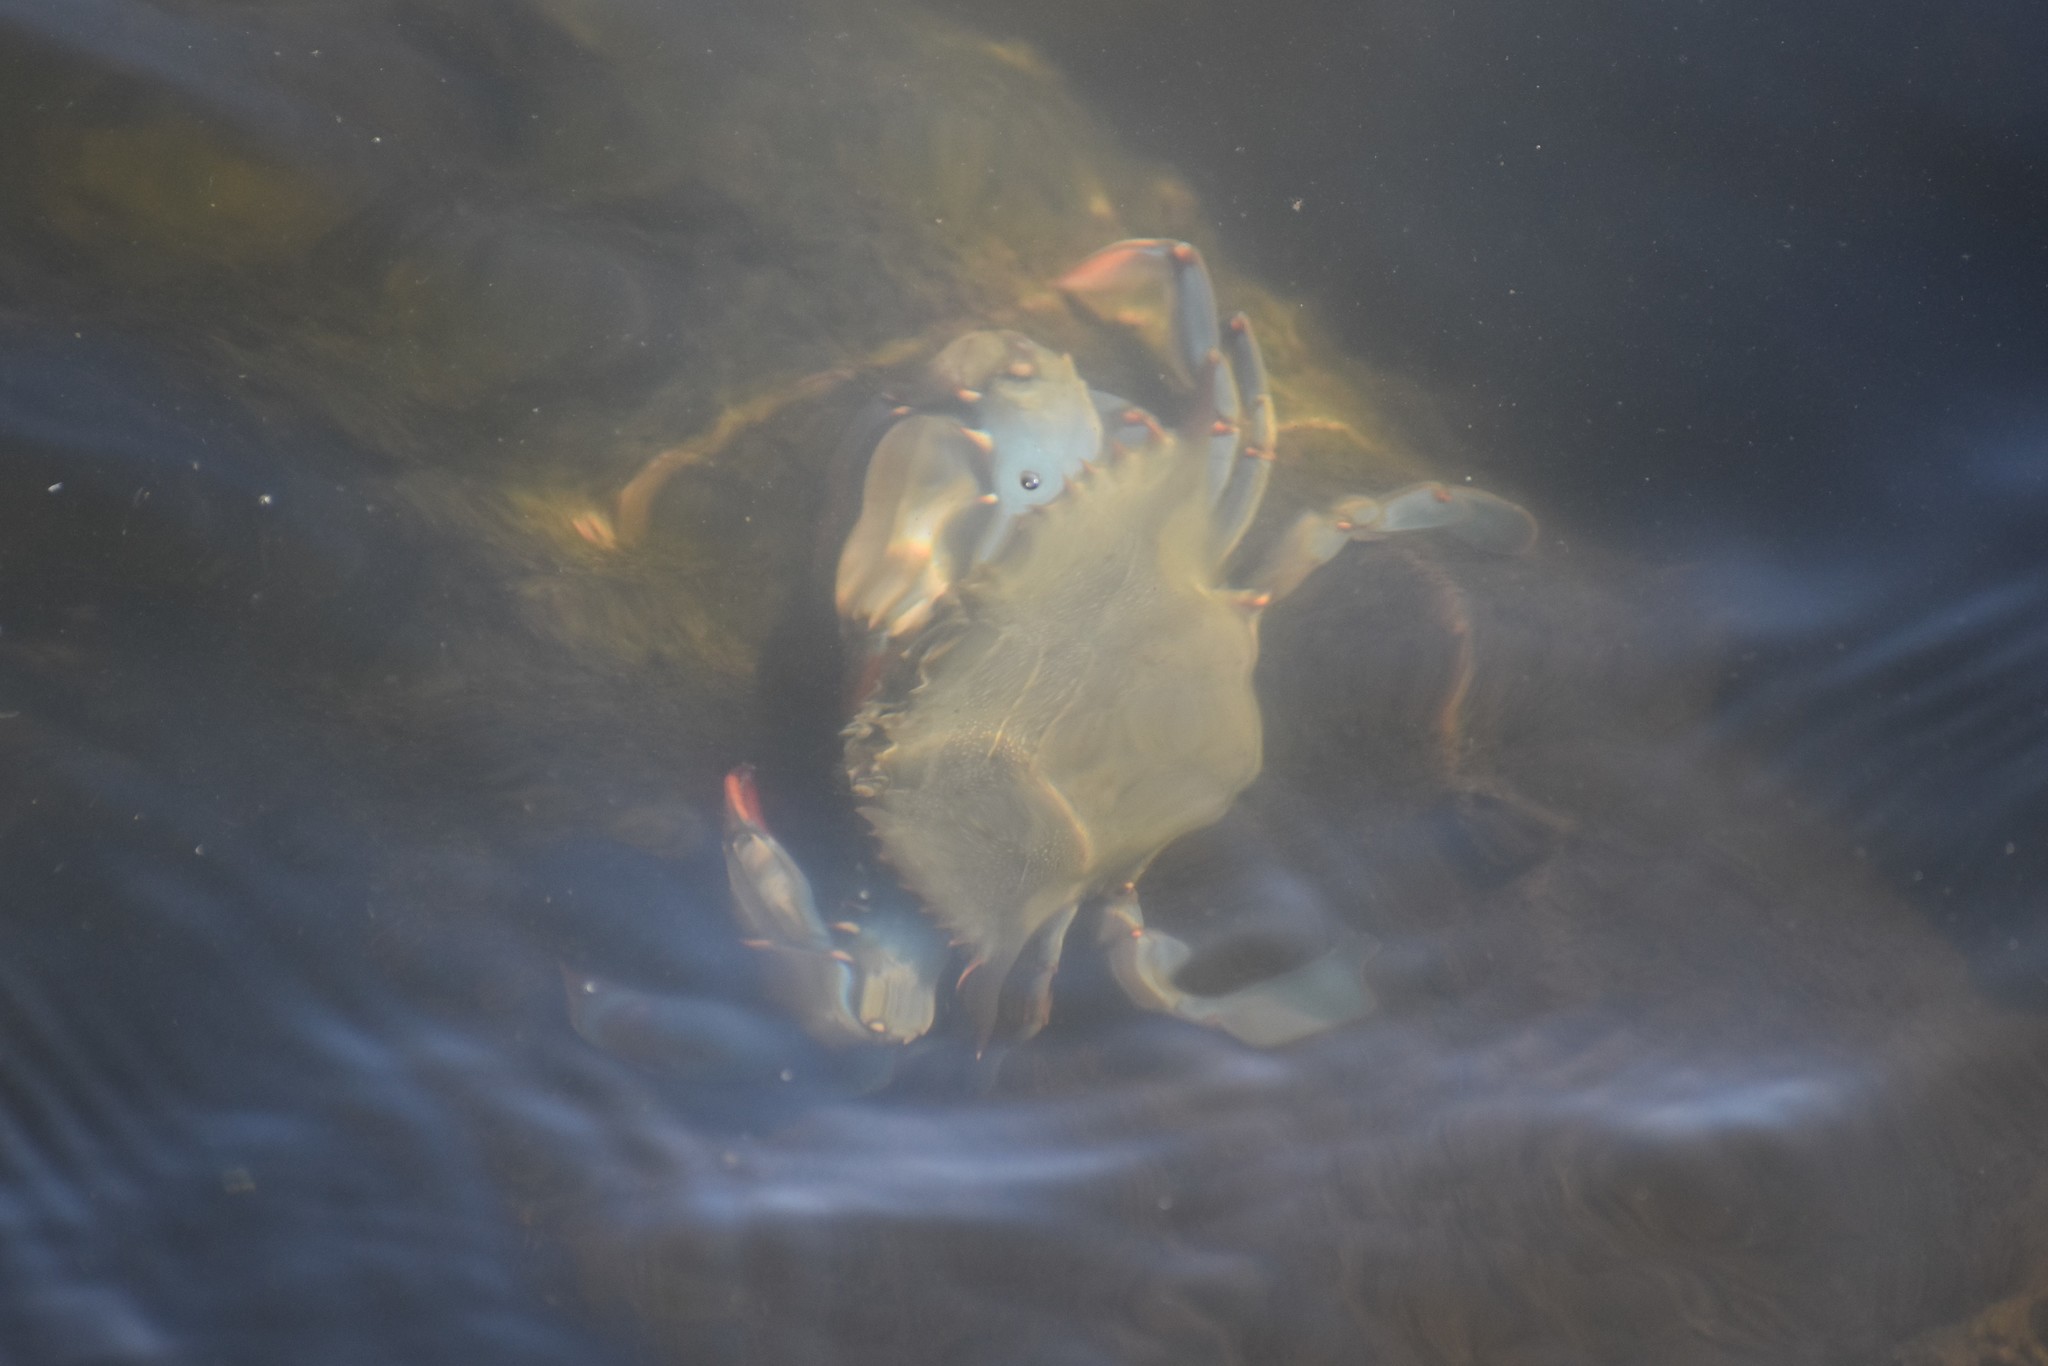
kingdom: Animalia
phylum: Arthropoda
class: Malacostraca
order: Decapoda
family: Portunidae
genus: Callinectes
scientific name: Callinectes sapidus
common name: Blue crab
